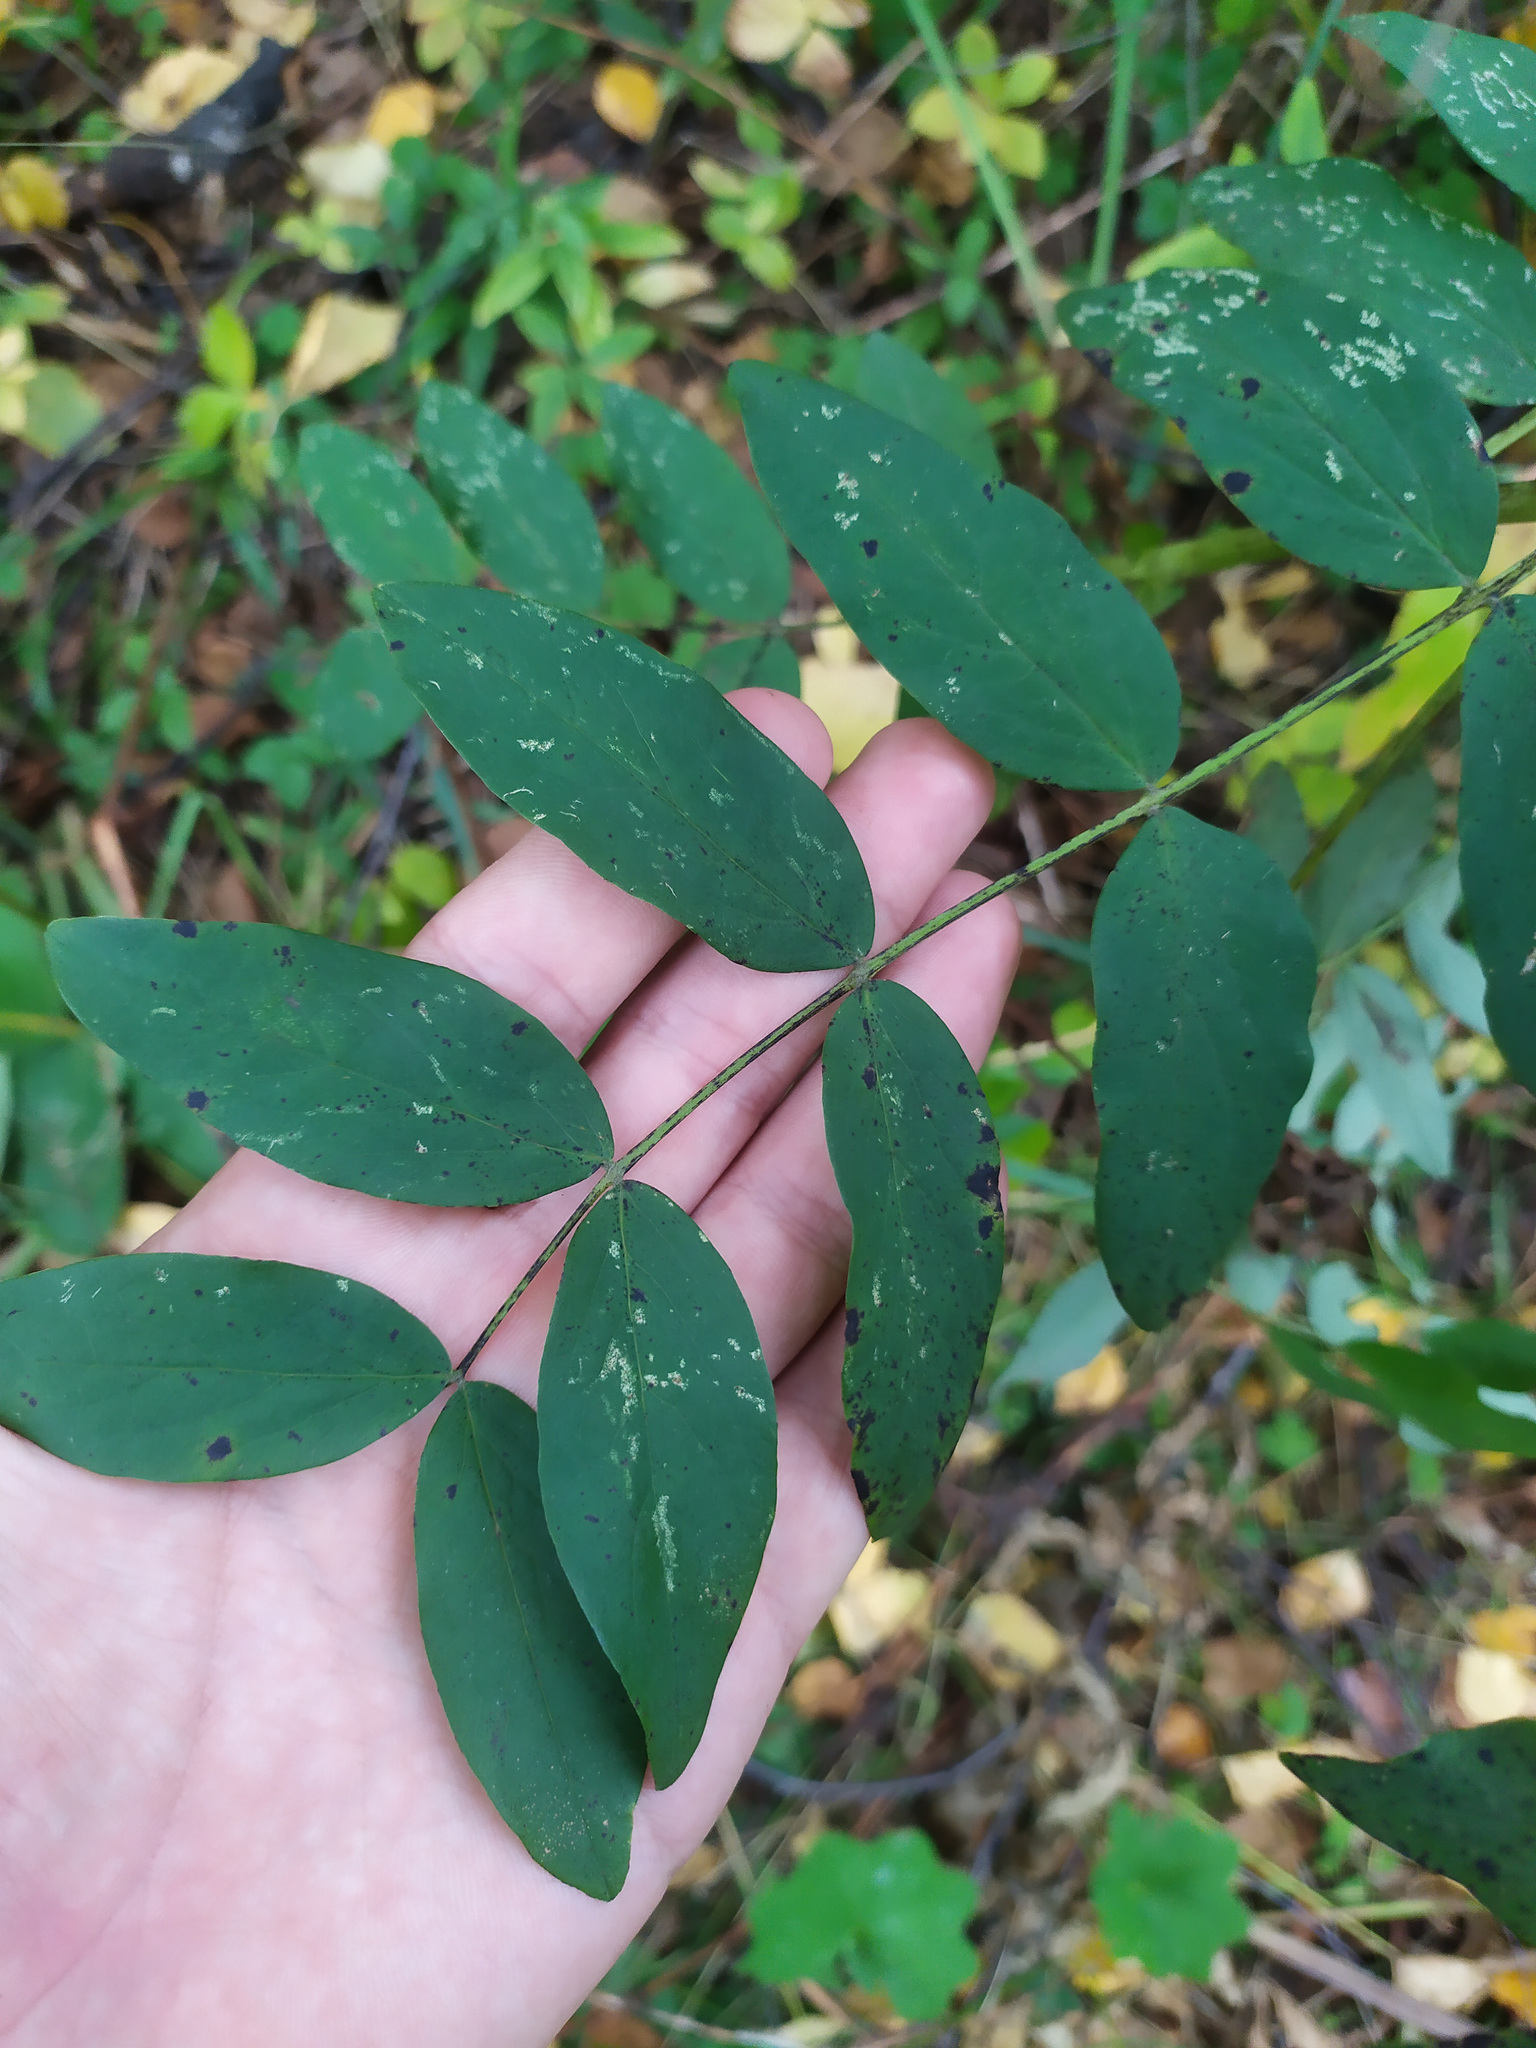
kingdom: Plantae
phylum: Tracheophyta
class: Magnoliopsida
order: Fabales
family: Fabaceae
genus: Lathyrus
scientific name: Lathyrus gmelinii
